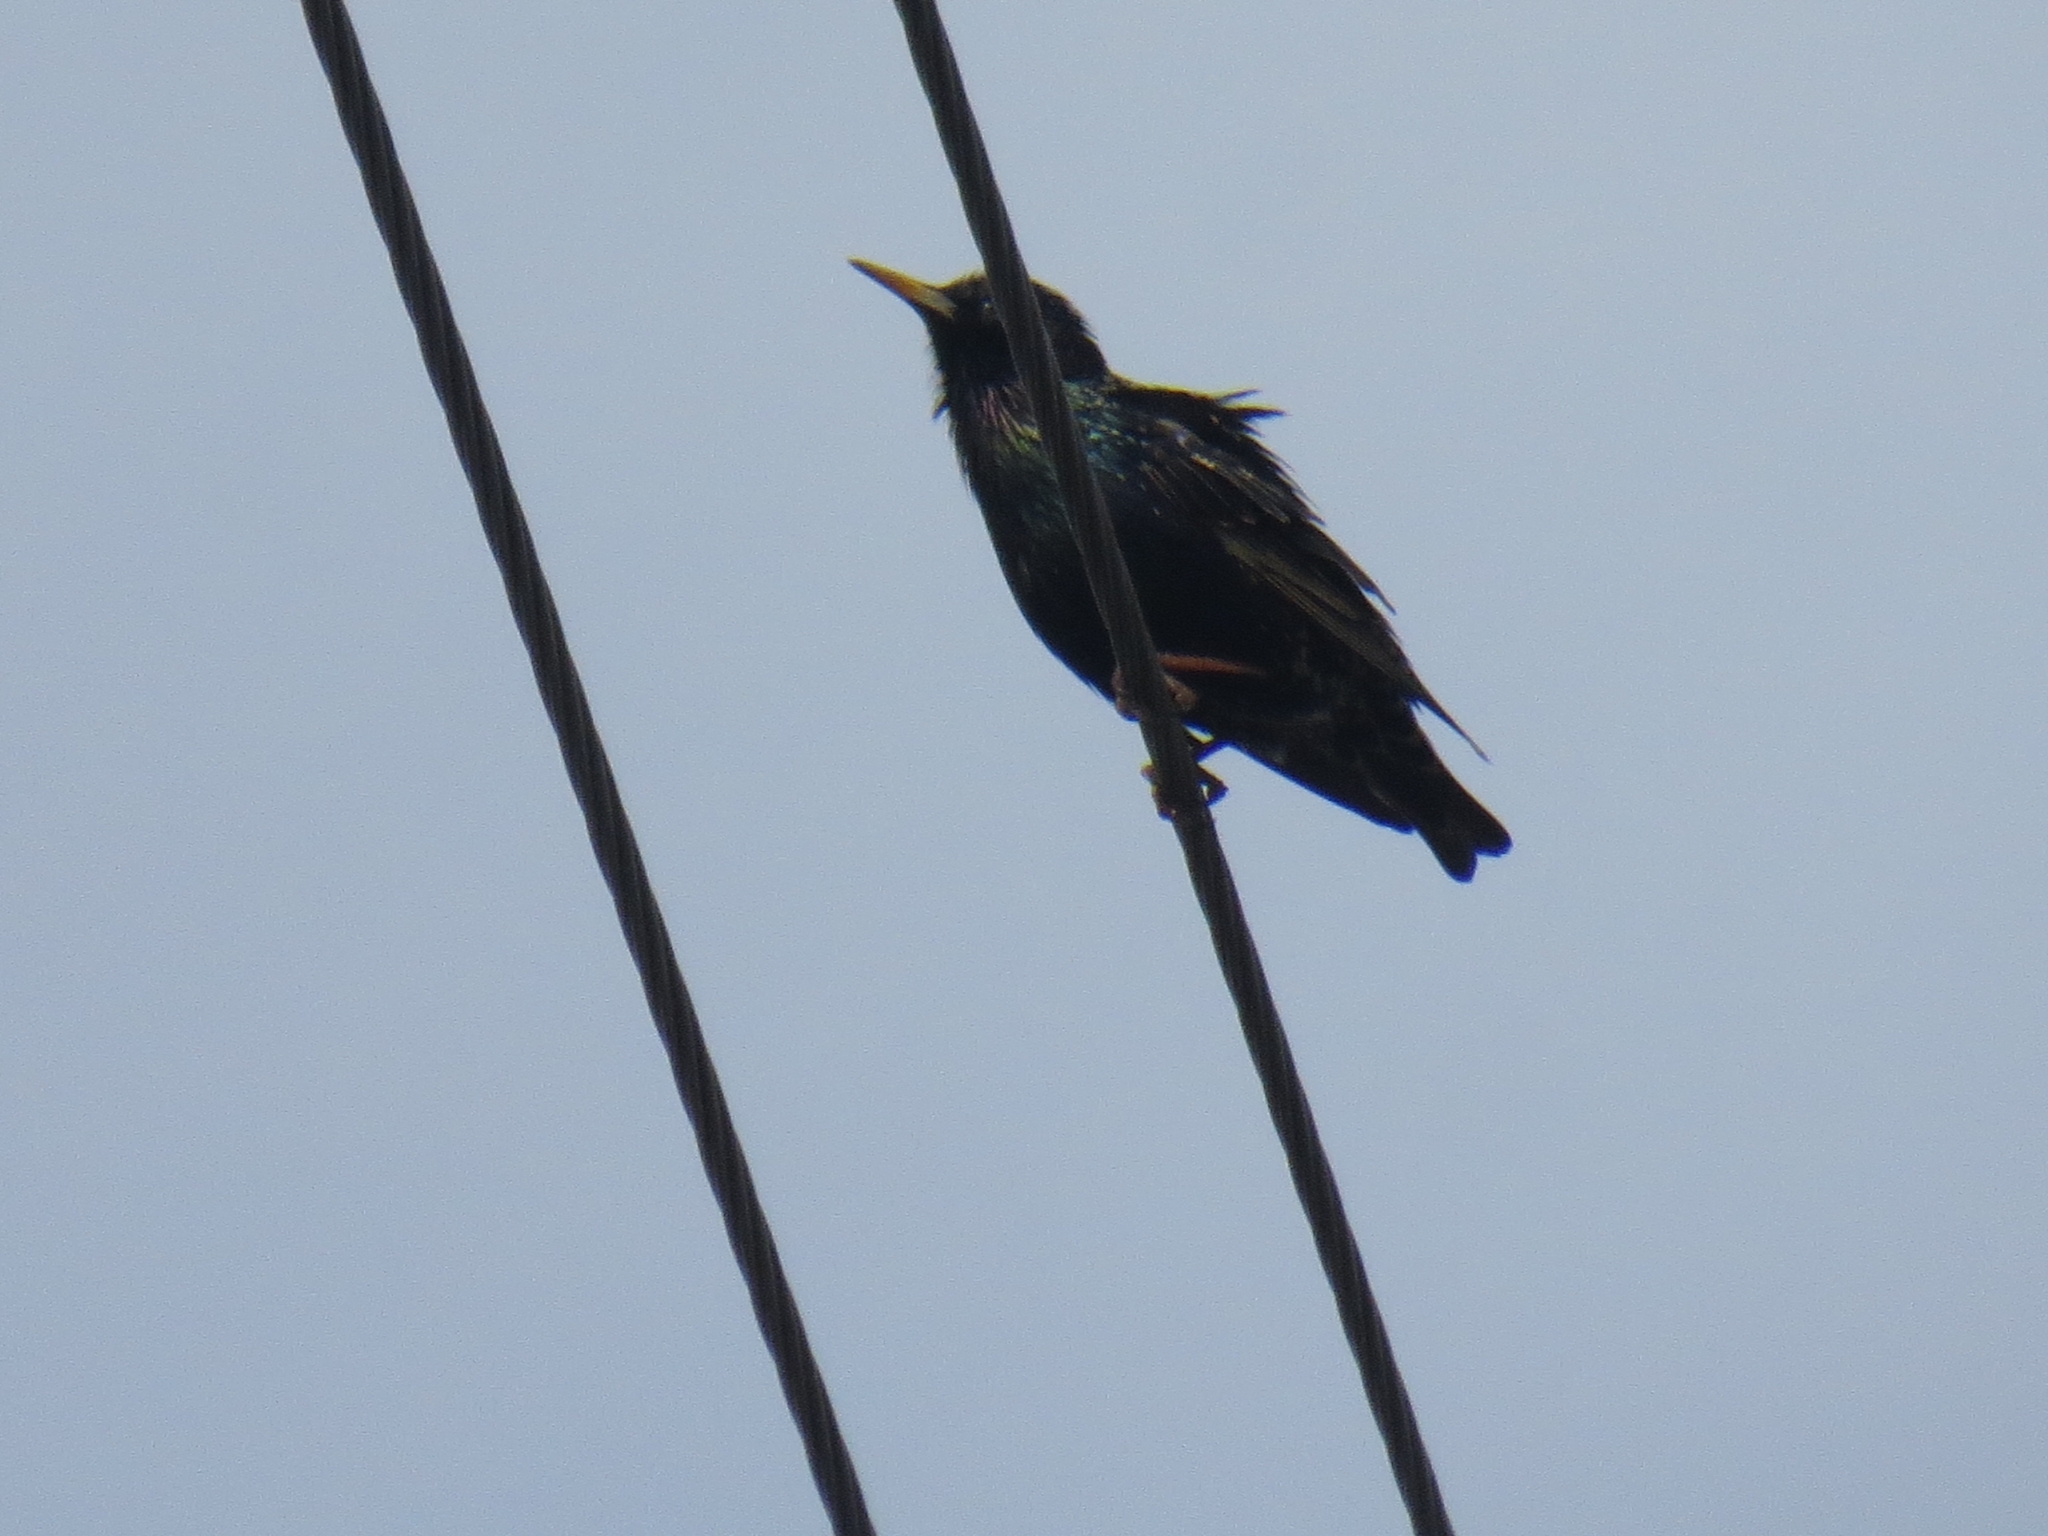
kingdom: Animalia
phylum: Chordata
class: Aves
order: Passeriformes
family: Sturnidae
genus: Sturnus
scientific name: Sturnus vulgaris
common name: Common starling
